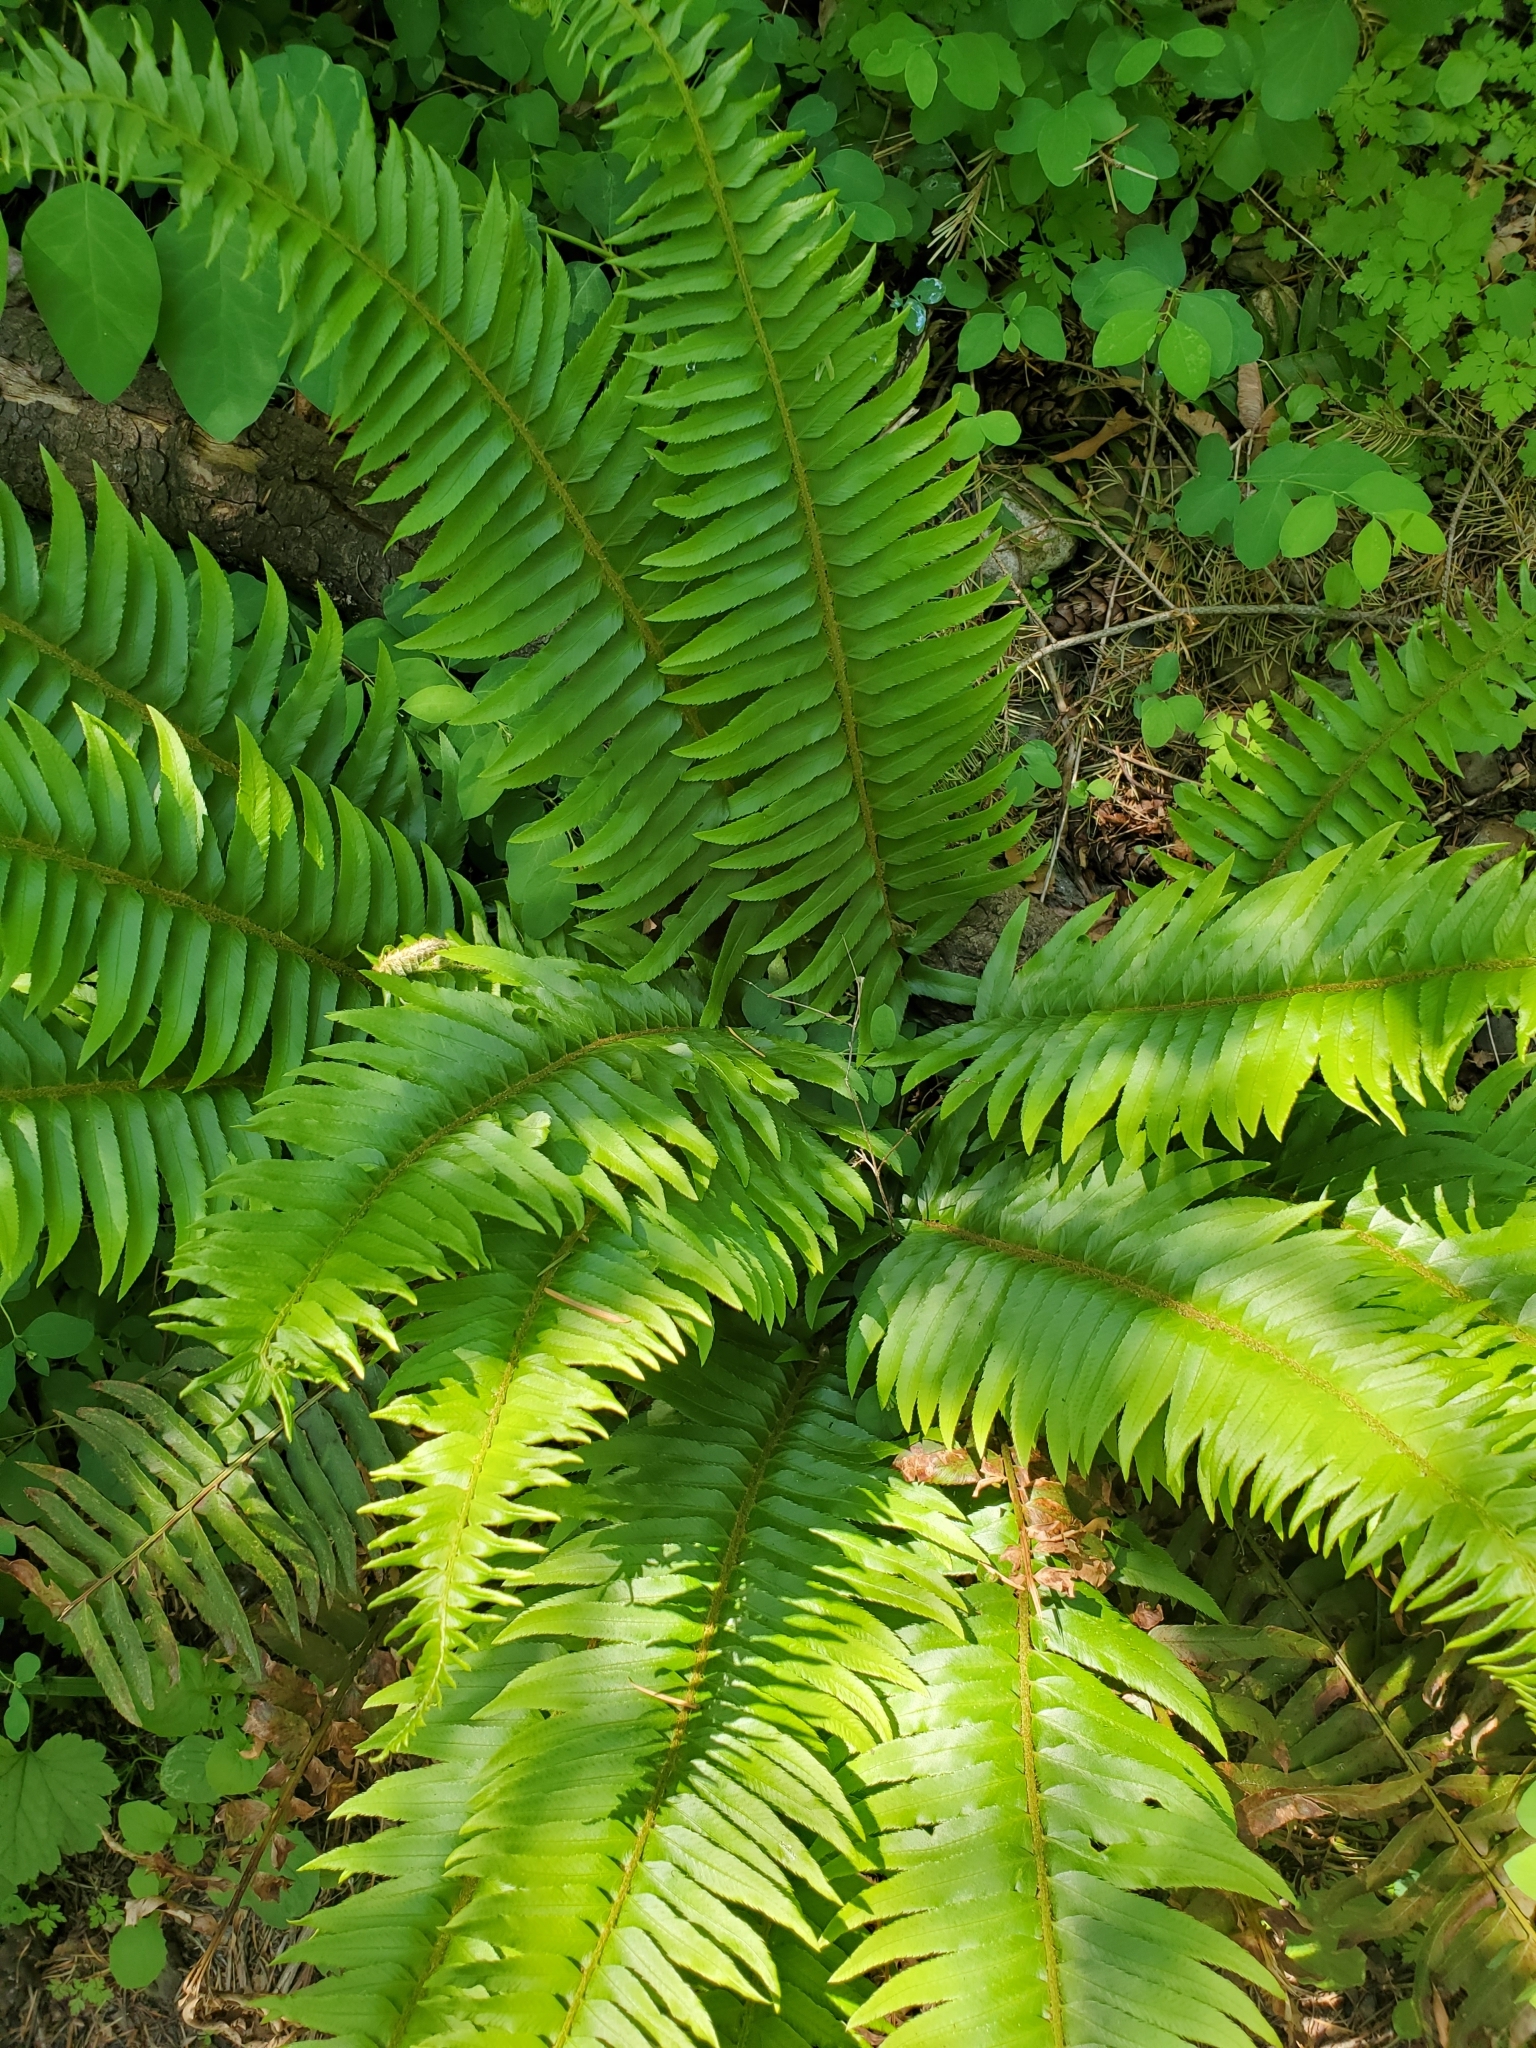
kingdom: Plantae
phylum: Tracheophyta
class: Polypodiopsida
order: Polypodiales
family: Dryopteridaceae
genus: Polystichum
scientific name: Polystichum munitum
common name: Western sword-fern
